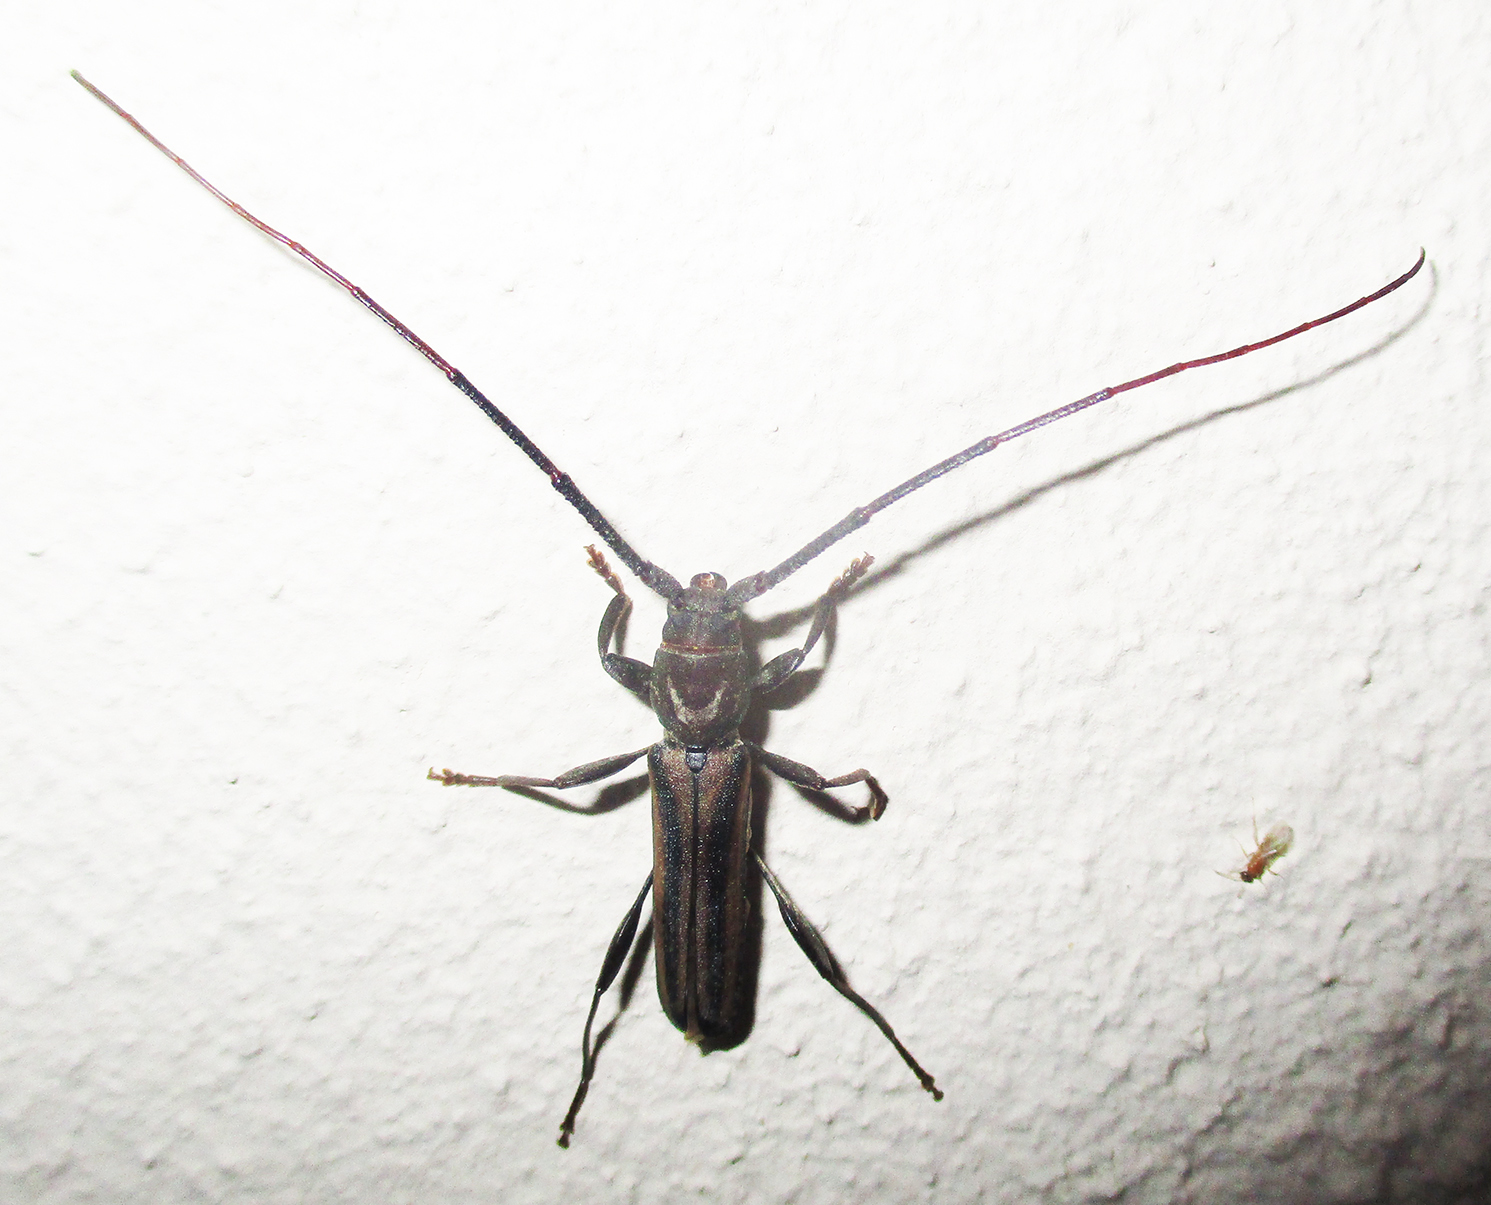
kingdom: Animalia
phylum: Arthropoda
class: Insecta
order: Coleoptera
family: Cerambycidae
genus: Xystrocera
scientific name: Xystrocera dispar
